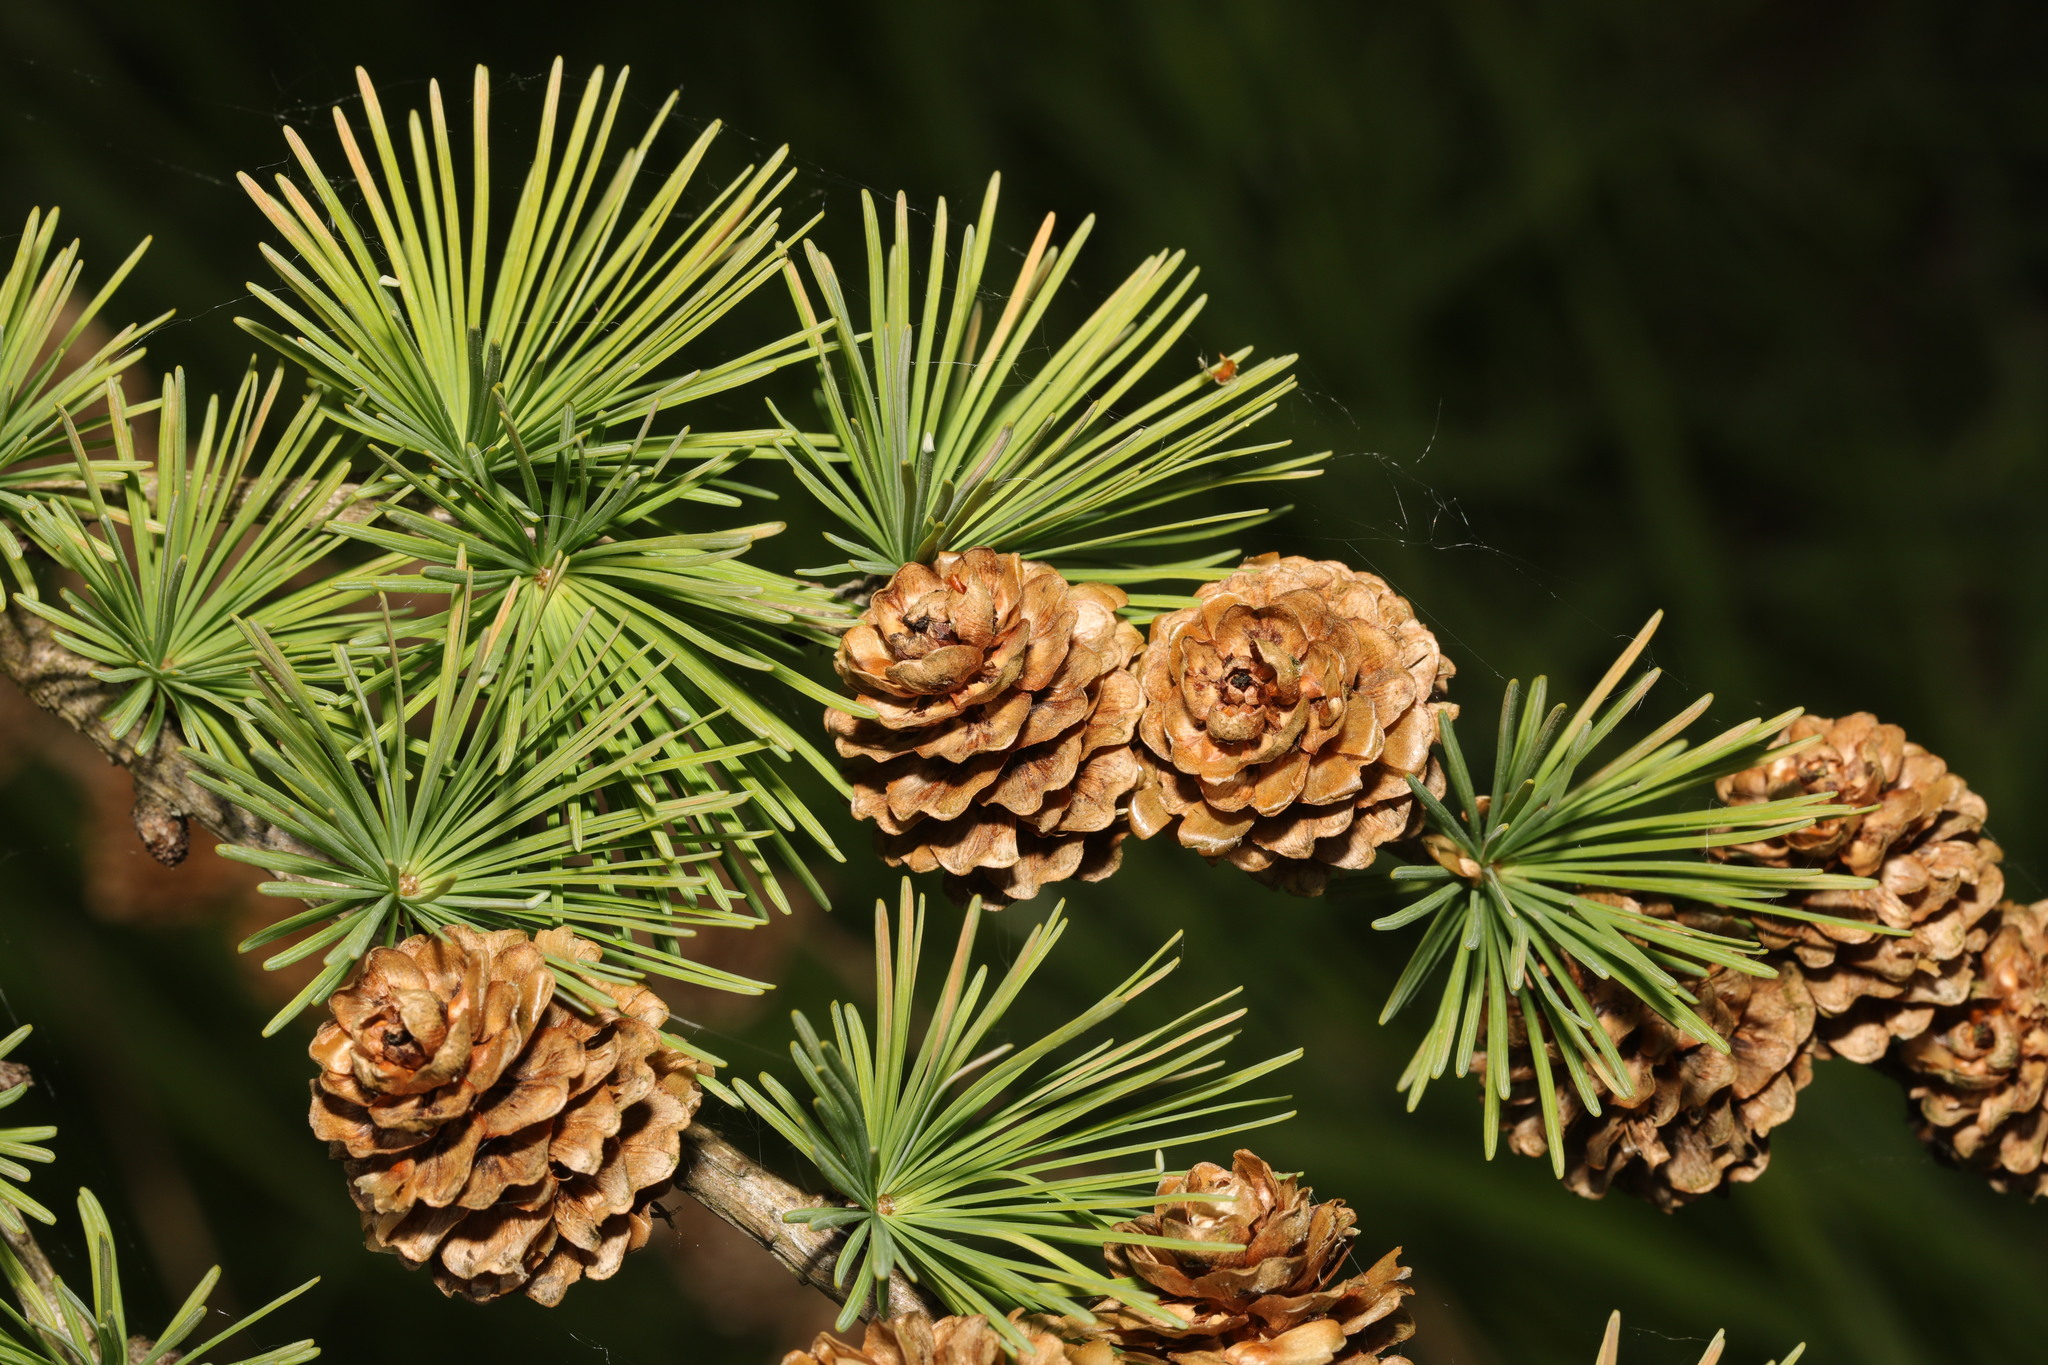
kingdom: Plantae
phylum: Tracheophyta
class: Pinopsida
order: Pinales
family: Pinaceae
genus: Larix
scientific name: Larix decidua
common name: European larch
